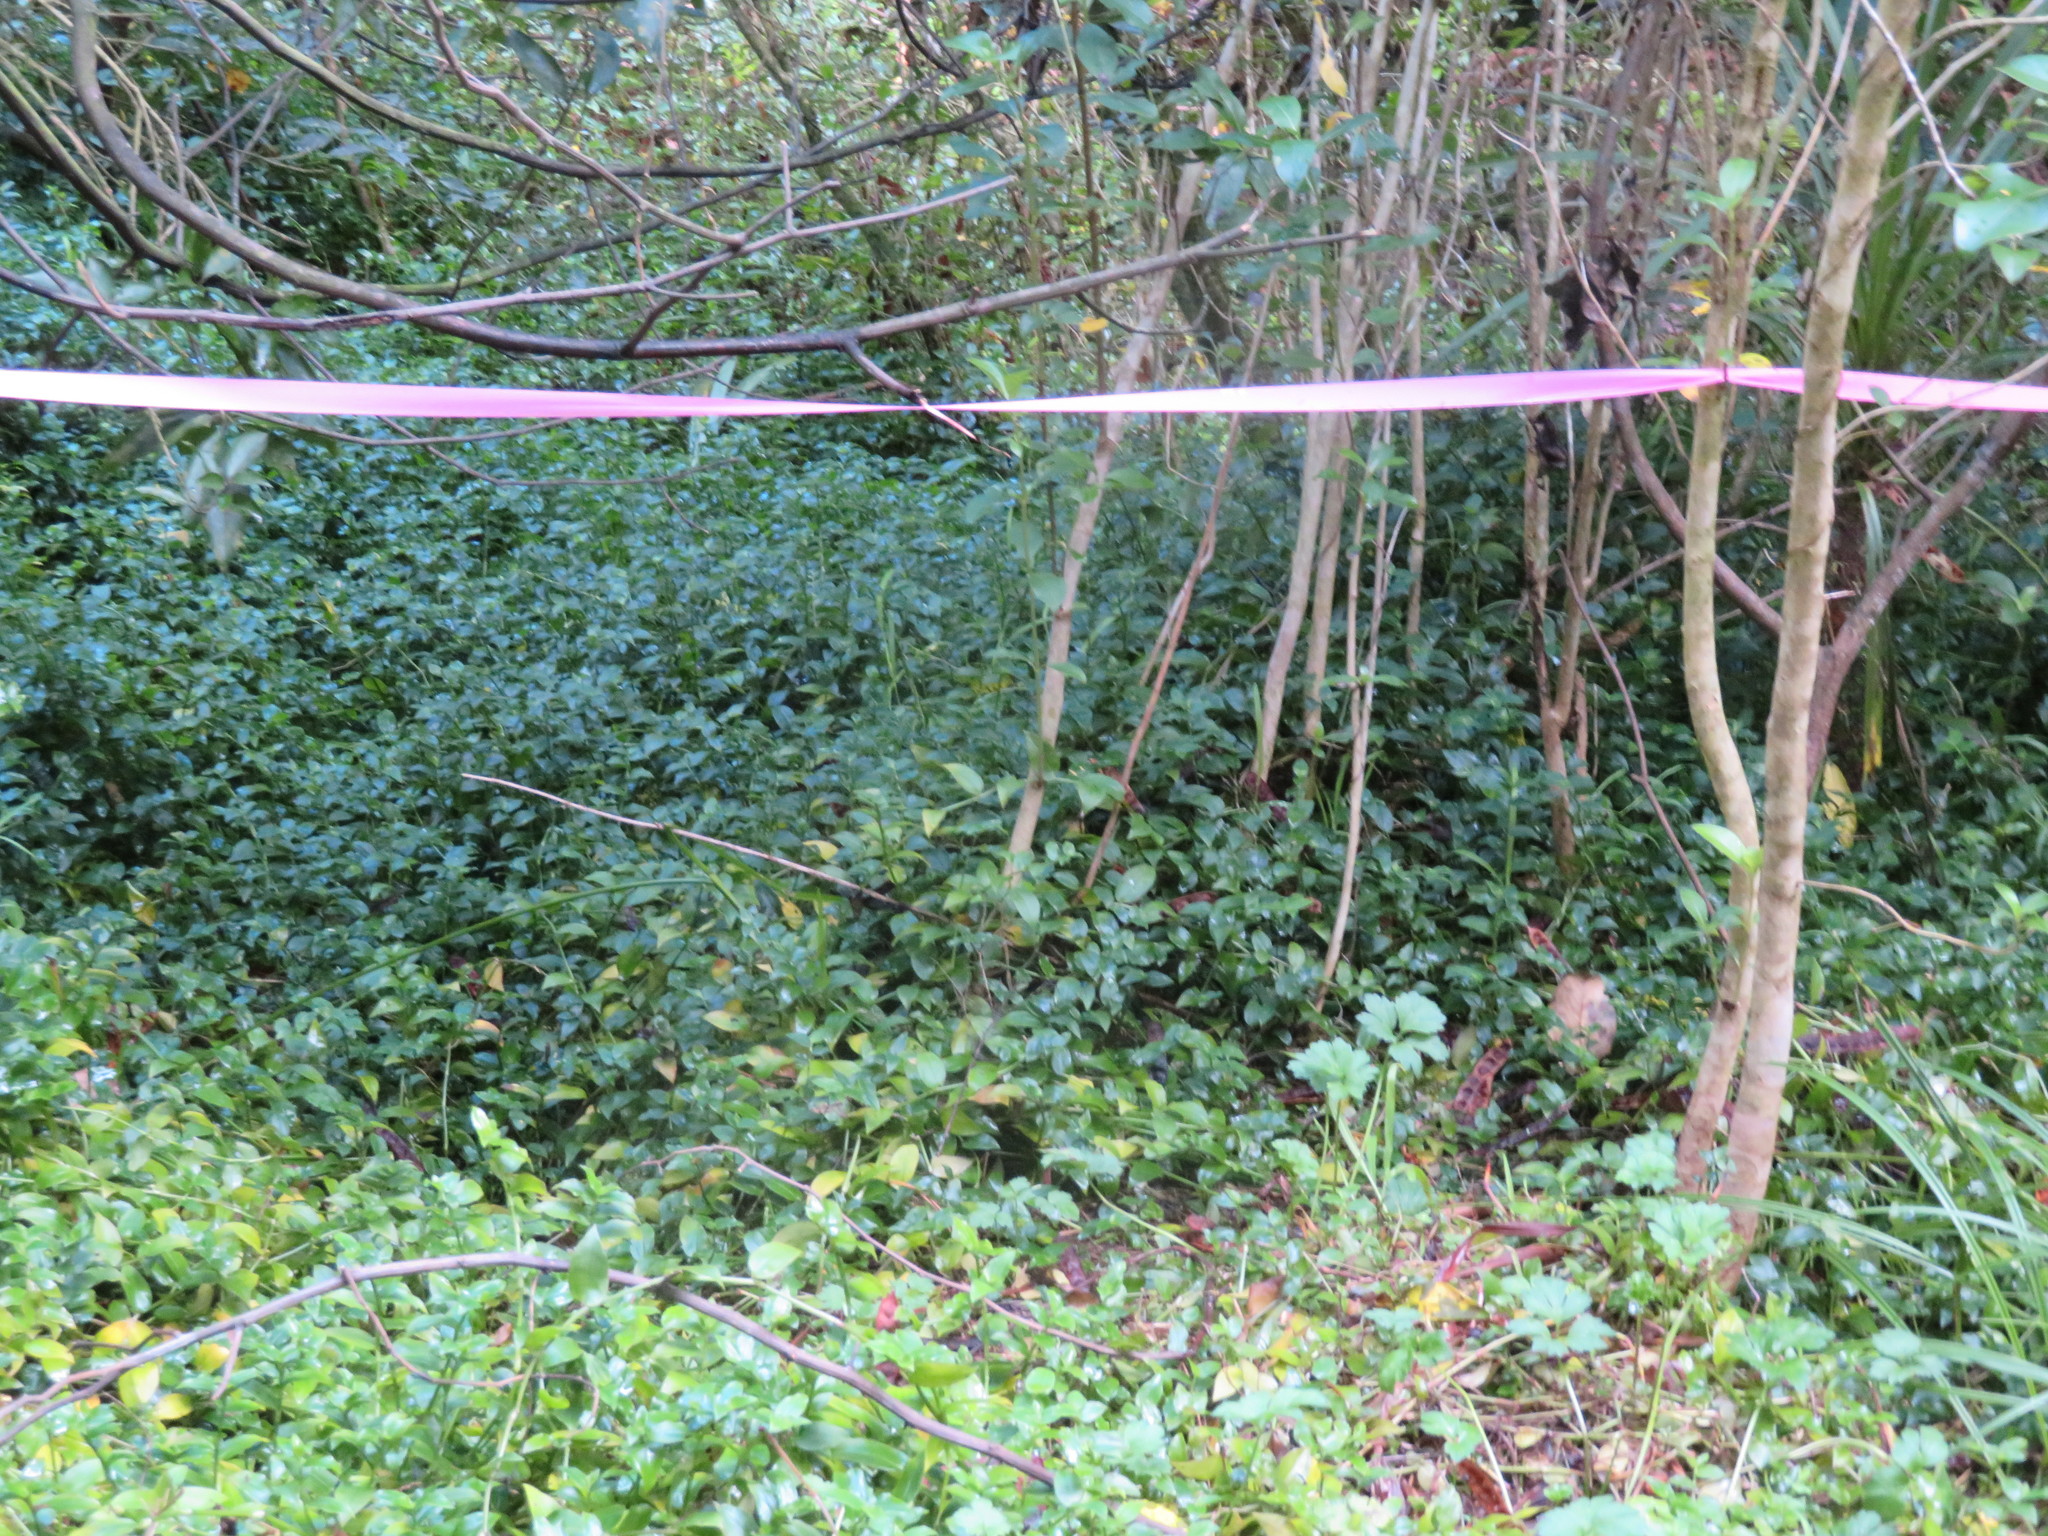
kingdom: Plantae
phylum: Tracheophyta
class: Liliopsida
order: Commelinales
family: Commelinaceae
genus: Tradescantia
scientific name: Tradescantia fluminensis
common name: Wandering-jew
